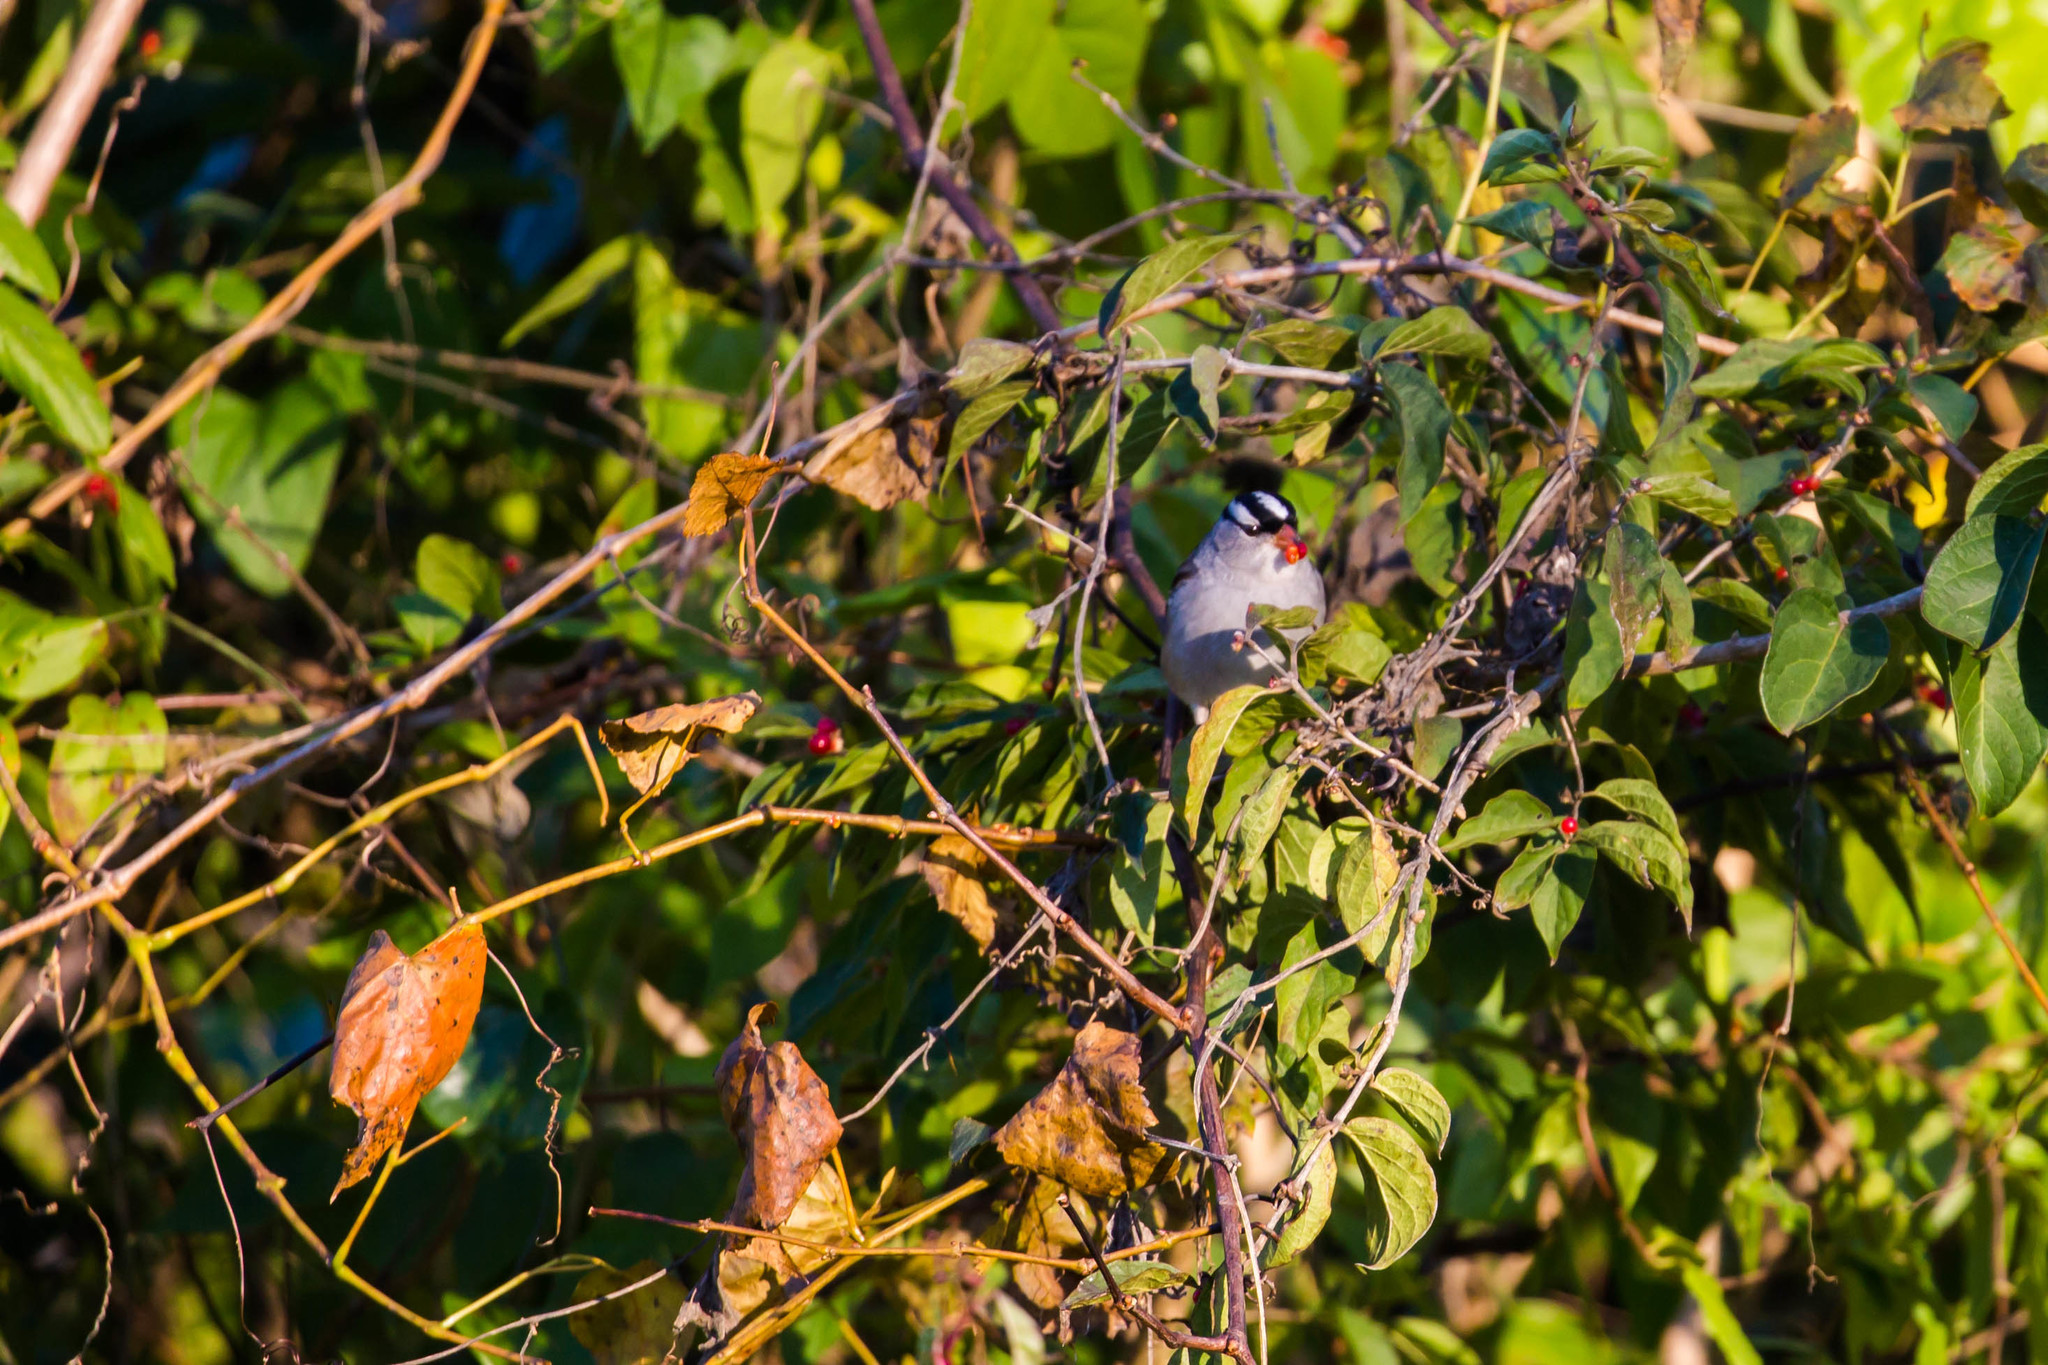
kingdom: Animalia
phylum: Chordata
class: Aves
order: Passeriformes
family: Passerellidae
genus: Zonotrichia
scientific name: Zonotrichia leucophrys
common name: White-crowned sparrow
